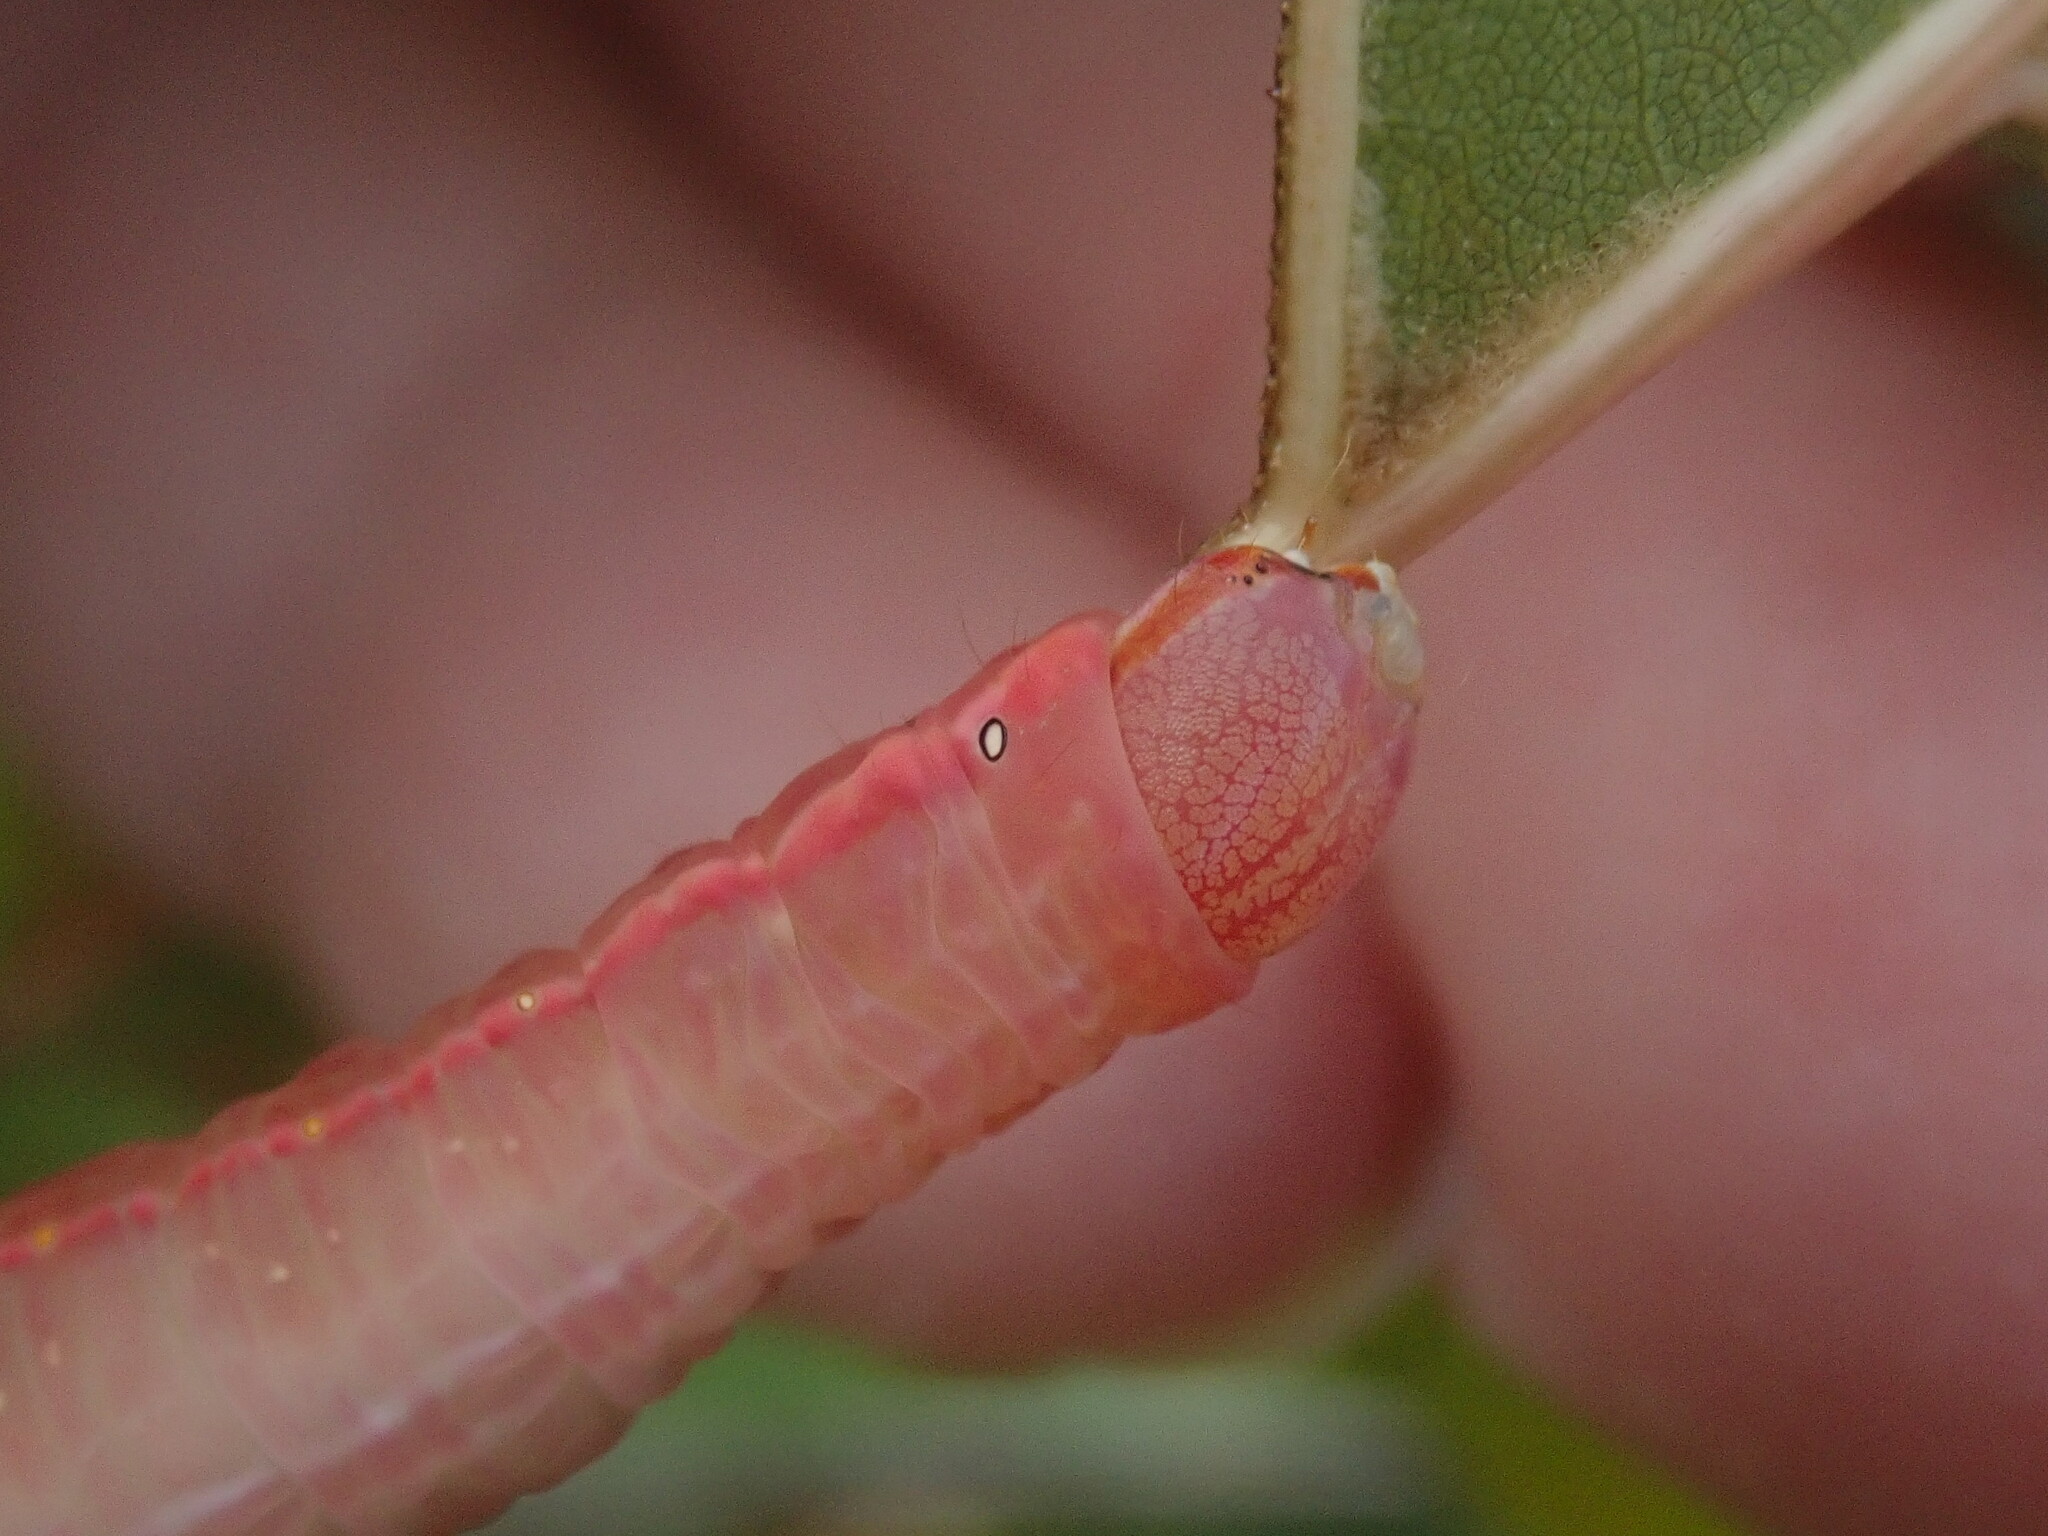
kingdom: Animalia
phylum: Arthropoda
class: Insecta
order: Lepidoptera
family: Notodontidae
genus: Peridea
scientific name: Peridea angulosa
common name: Angulose prominent
